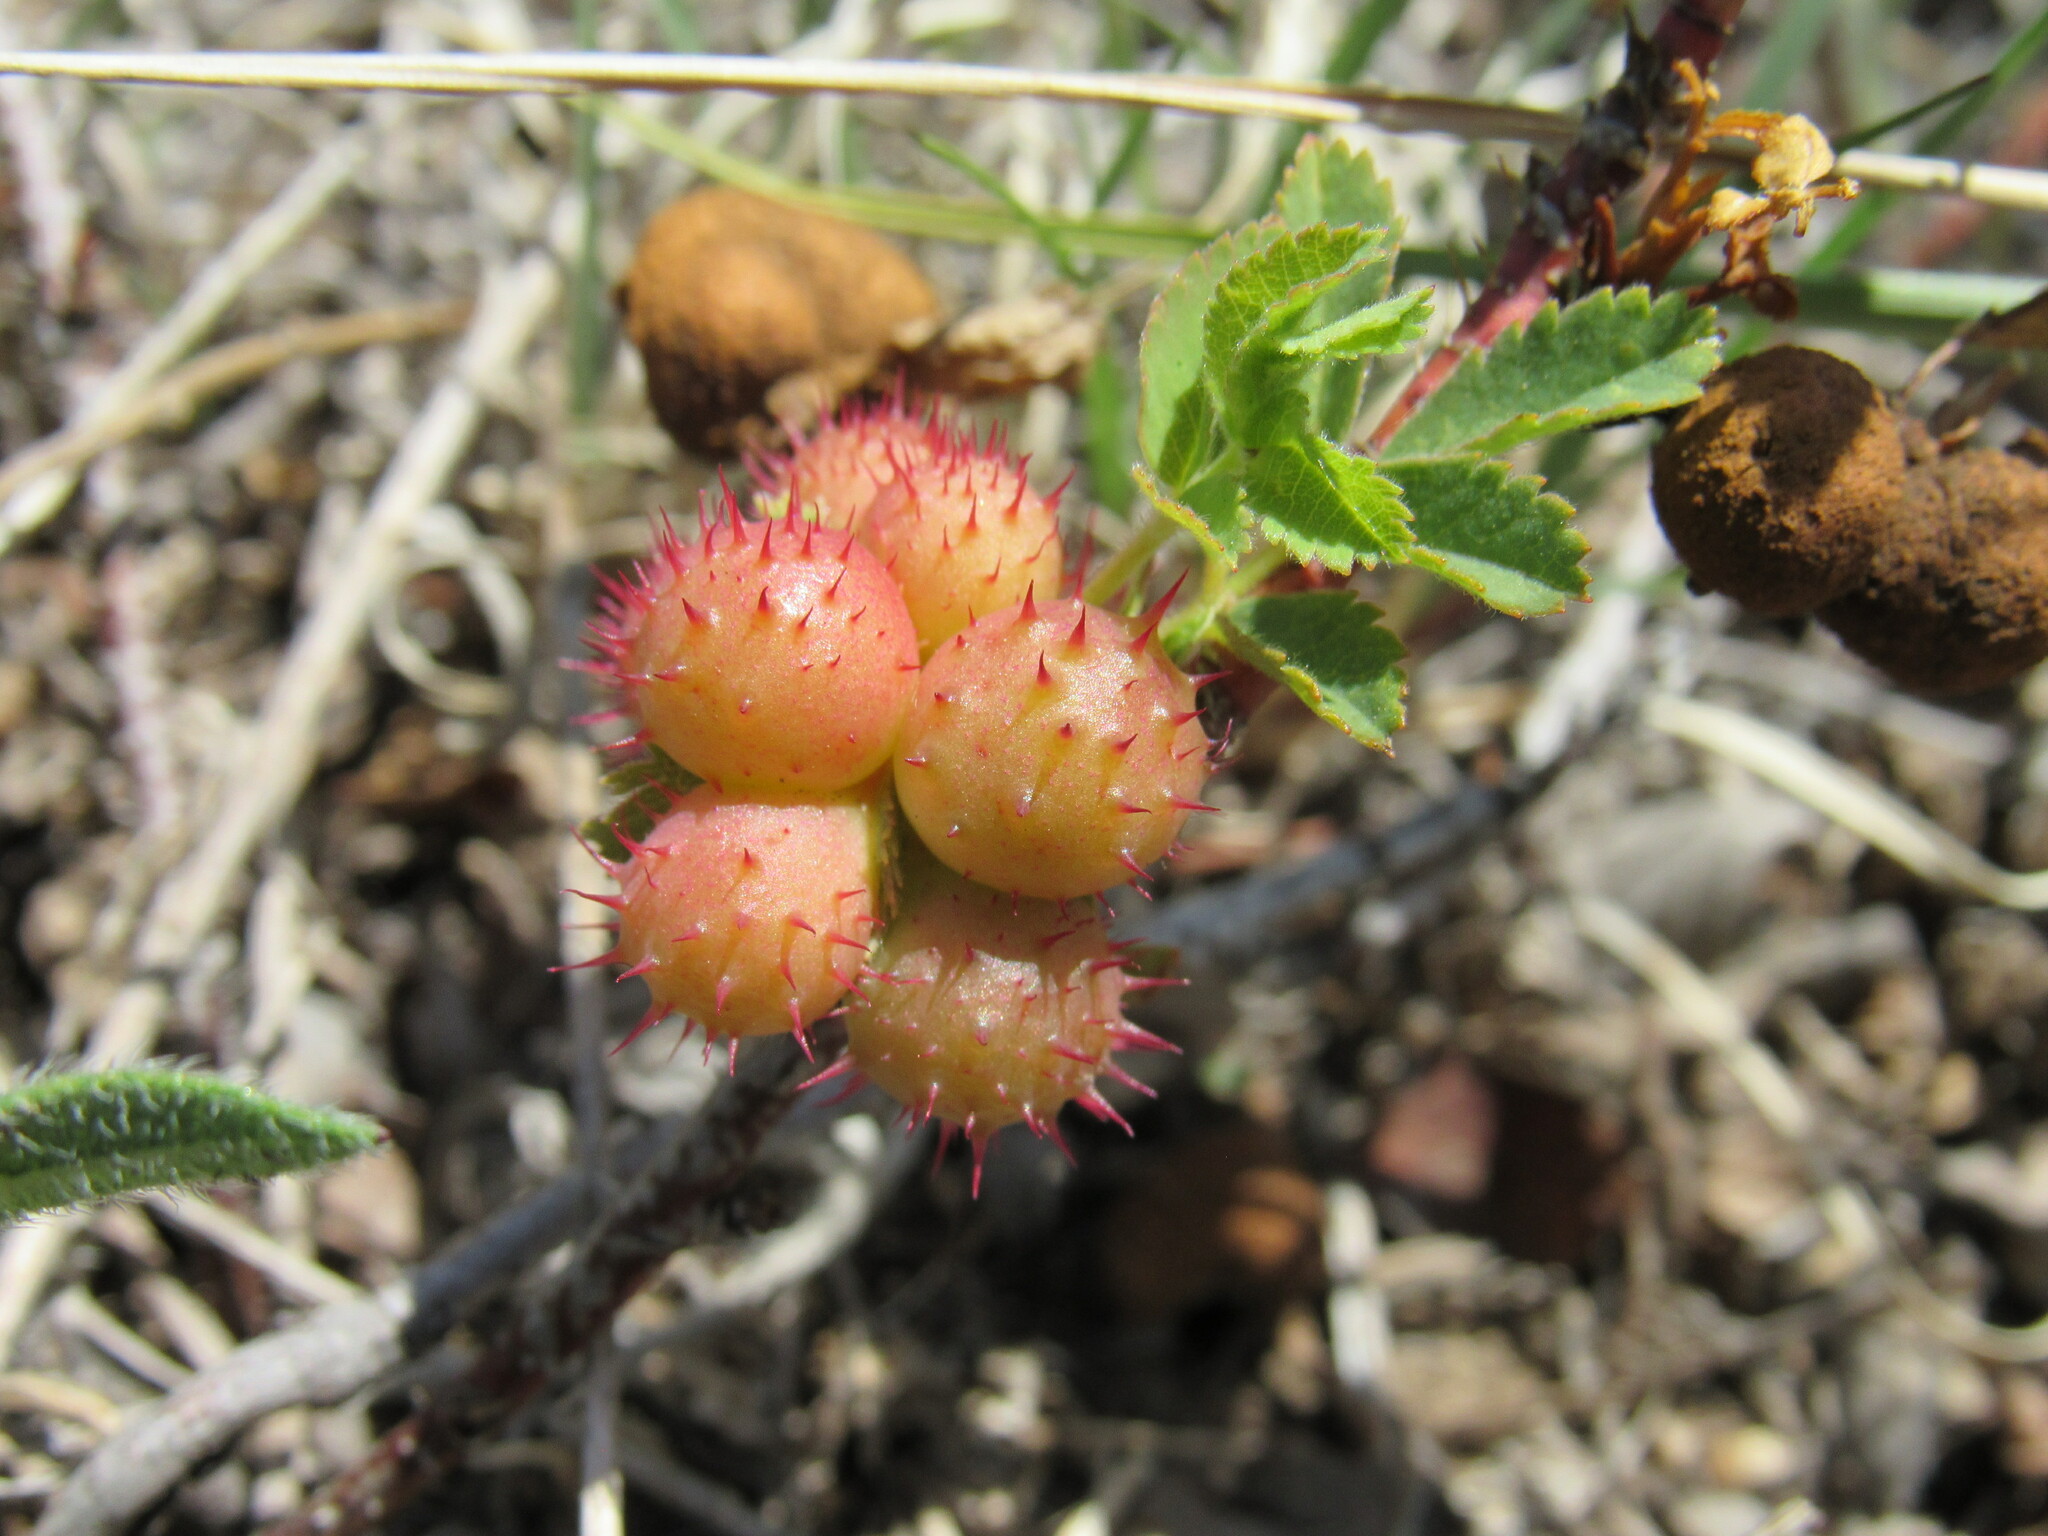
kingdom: Animalia
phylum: Arthropoda
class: Insecta
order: Hymenoptera
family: Cynipidae
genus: Diplolepis
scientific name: Diplolepis polita
